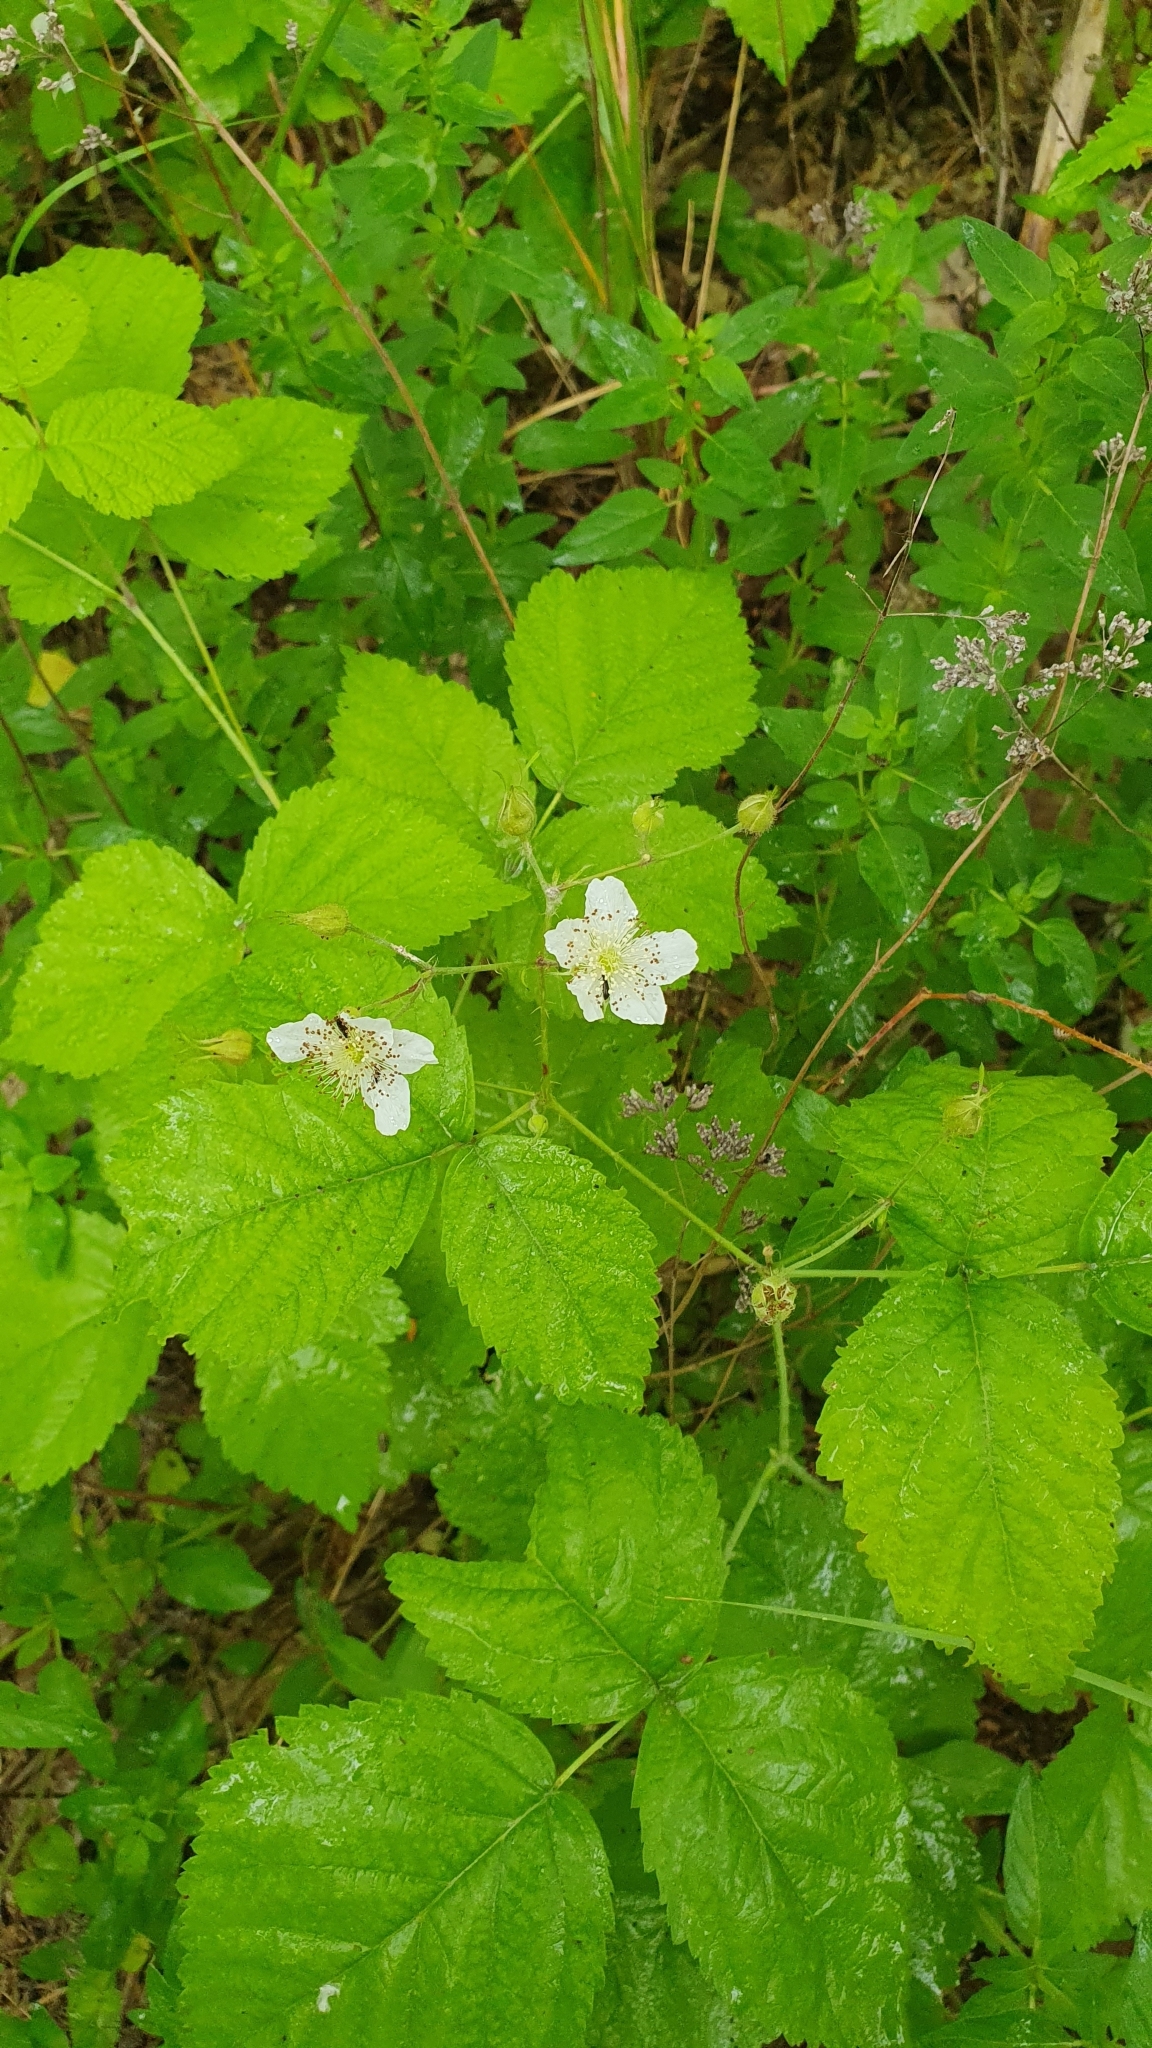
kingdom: Plantae
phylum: Tracheophyta
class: Magnoliopsida
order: Rosales
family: Rosaceae
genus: Rubus
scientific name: Rubus caesius
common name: Dewberry
